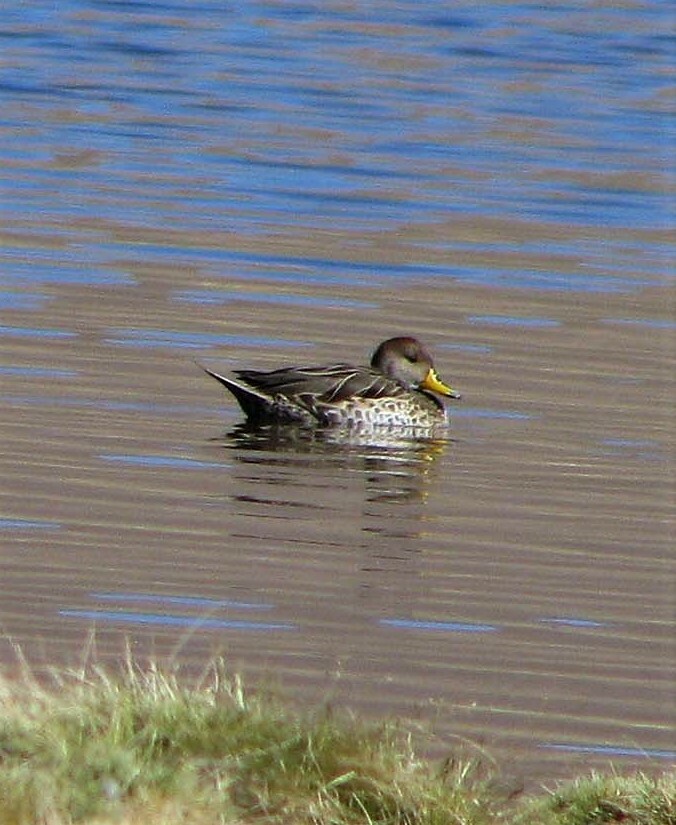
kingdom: Animalia
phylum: Chordata
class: Aves
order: Anseriformes
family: Anatidae
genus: Anas
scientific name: Anas georgica
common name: Yellow-billed pintail
